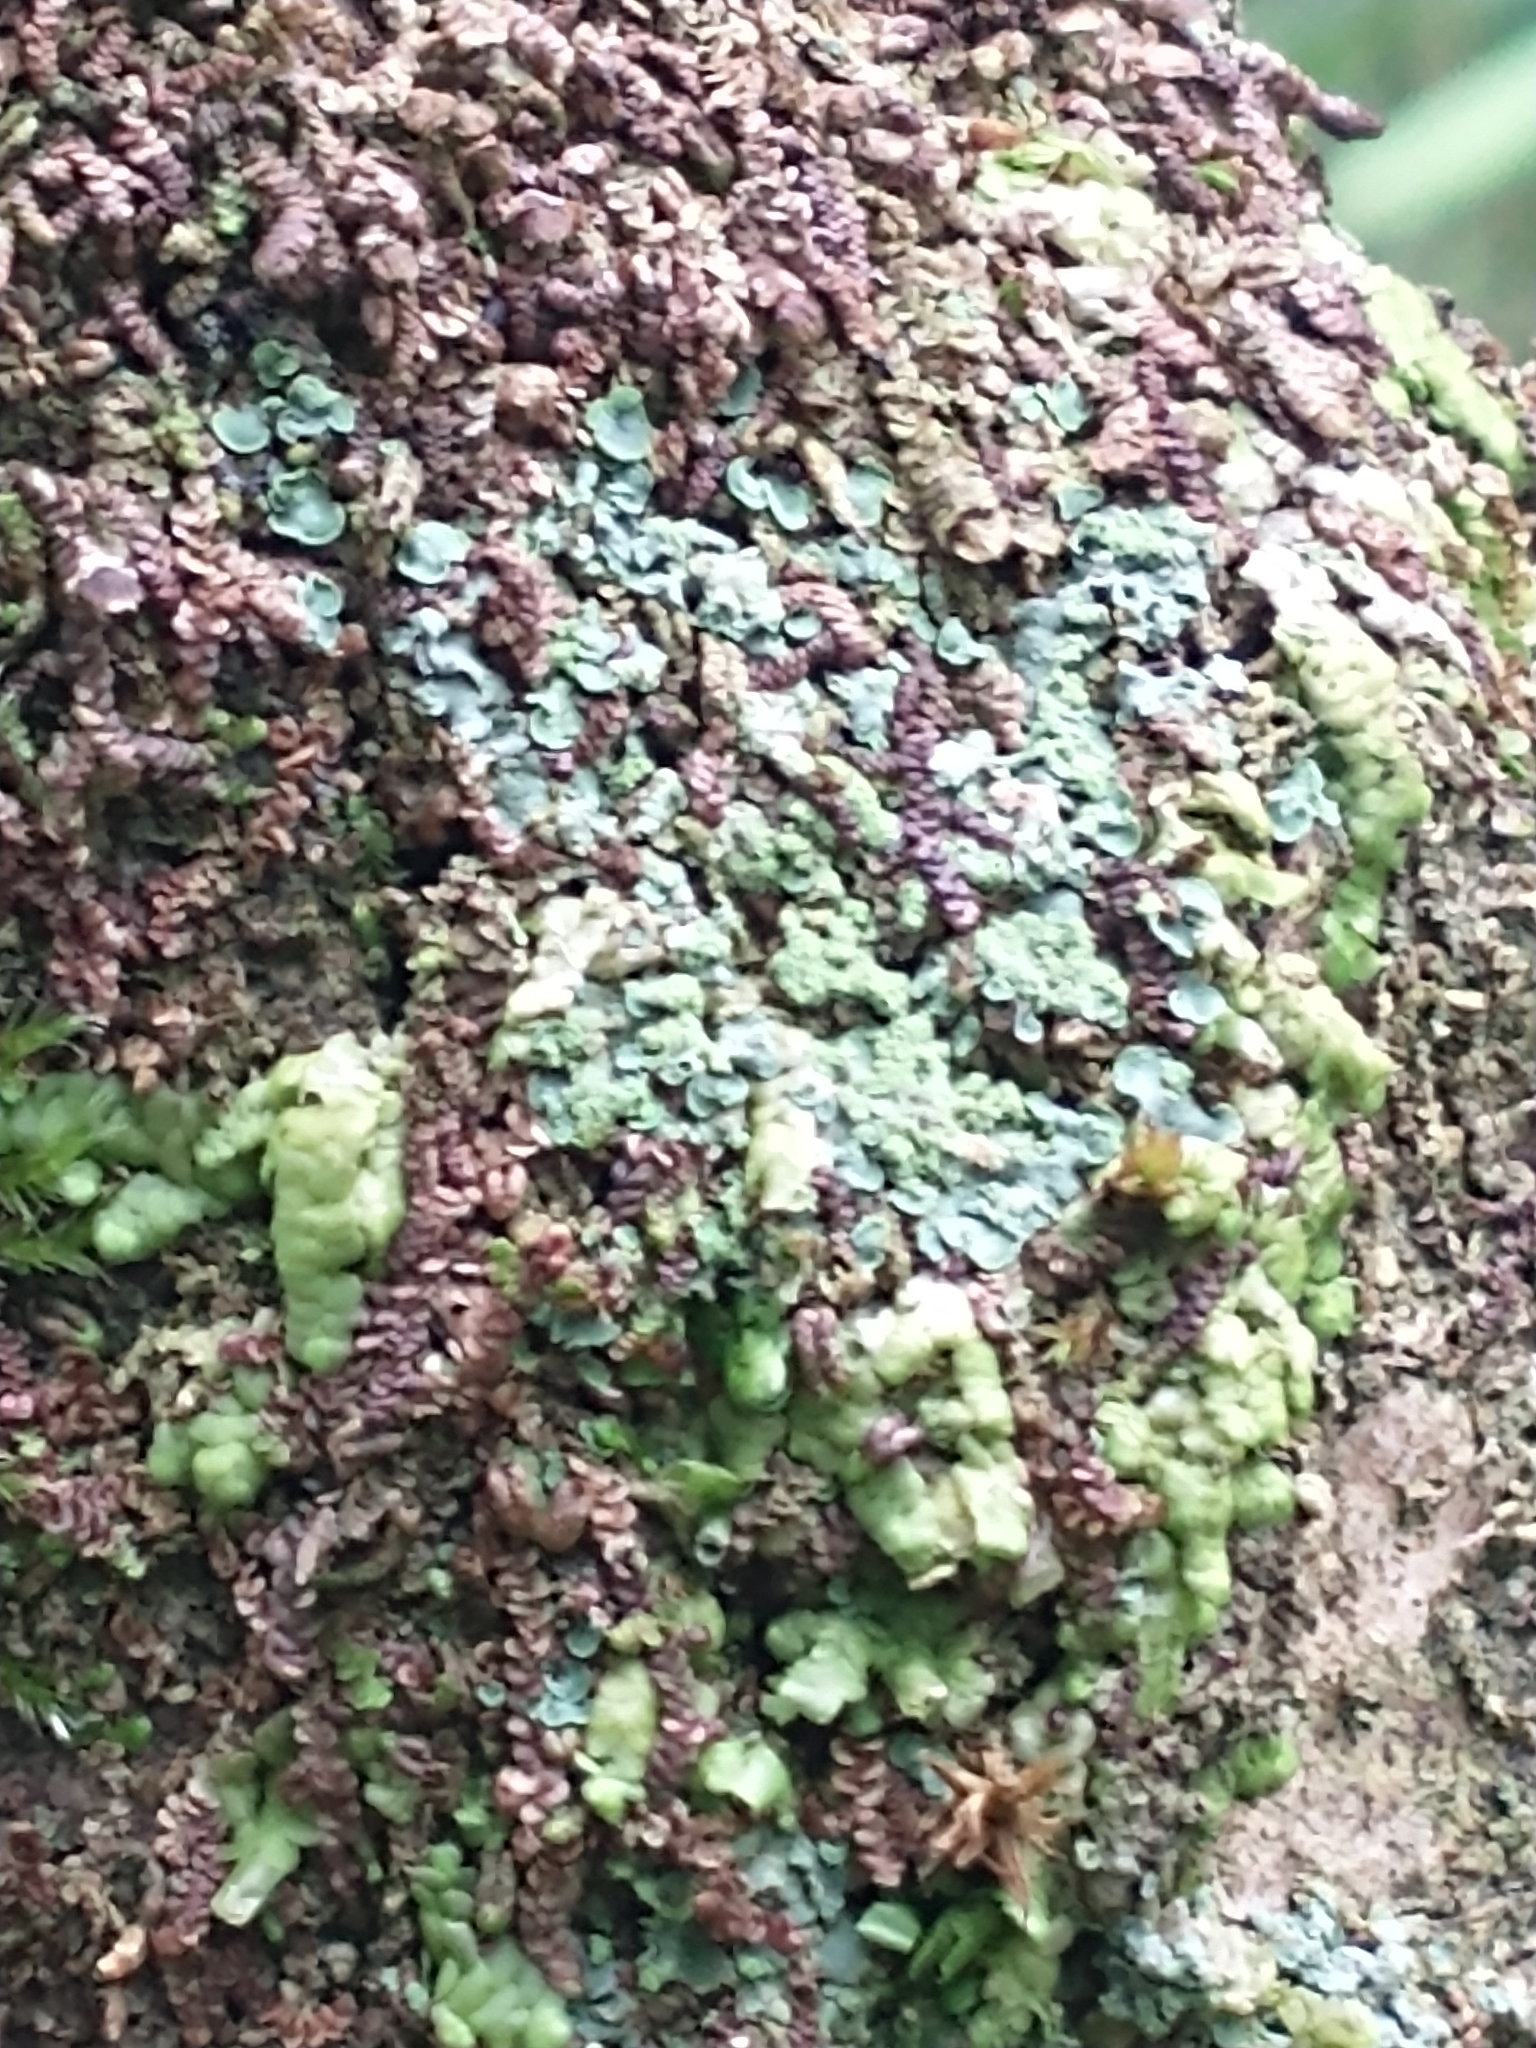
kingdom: Fungi
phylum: Ascomycota
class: Eurotiomycetes
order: Verrucariales
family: Verrucariaceae
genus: Normandina
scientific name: Normandina pulchella
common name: Elf ears lichen
